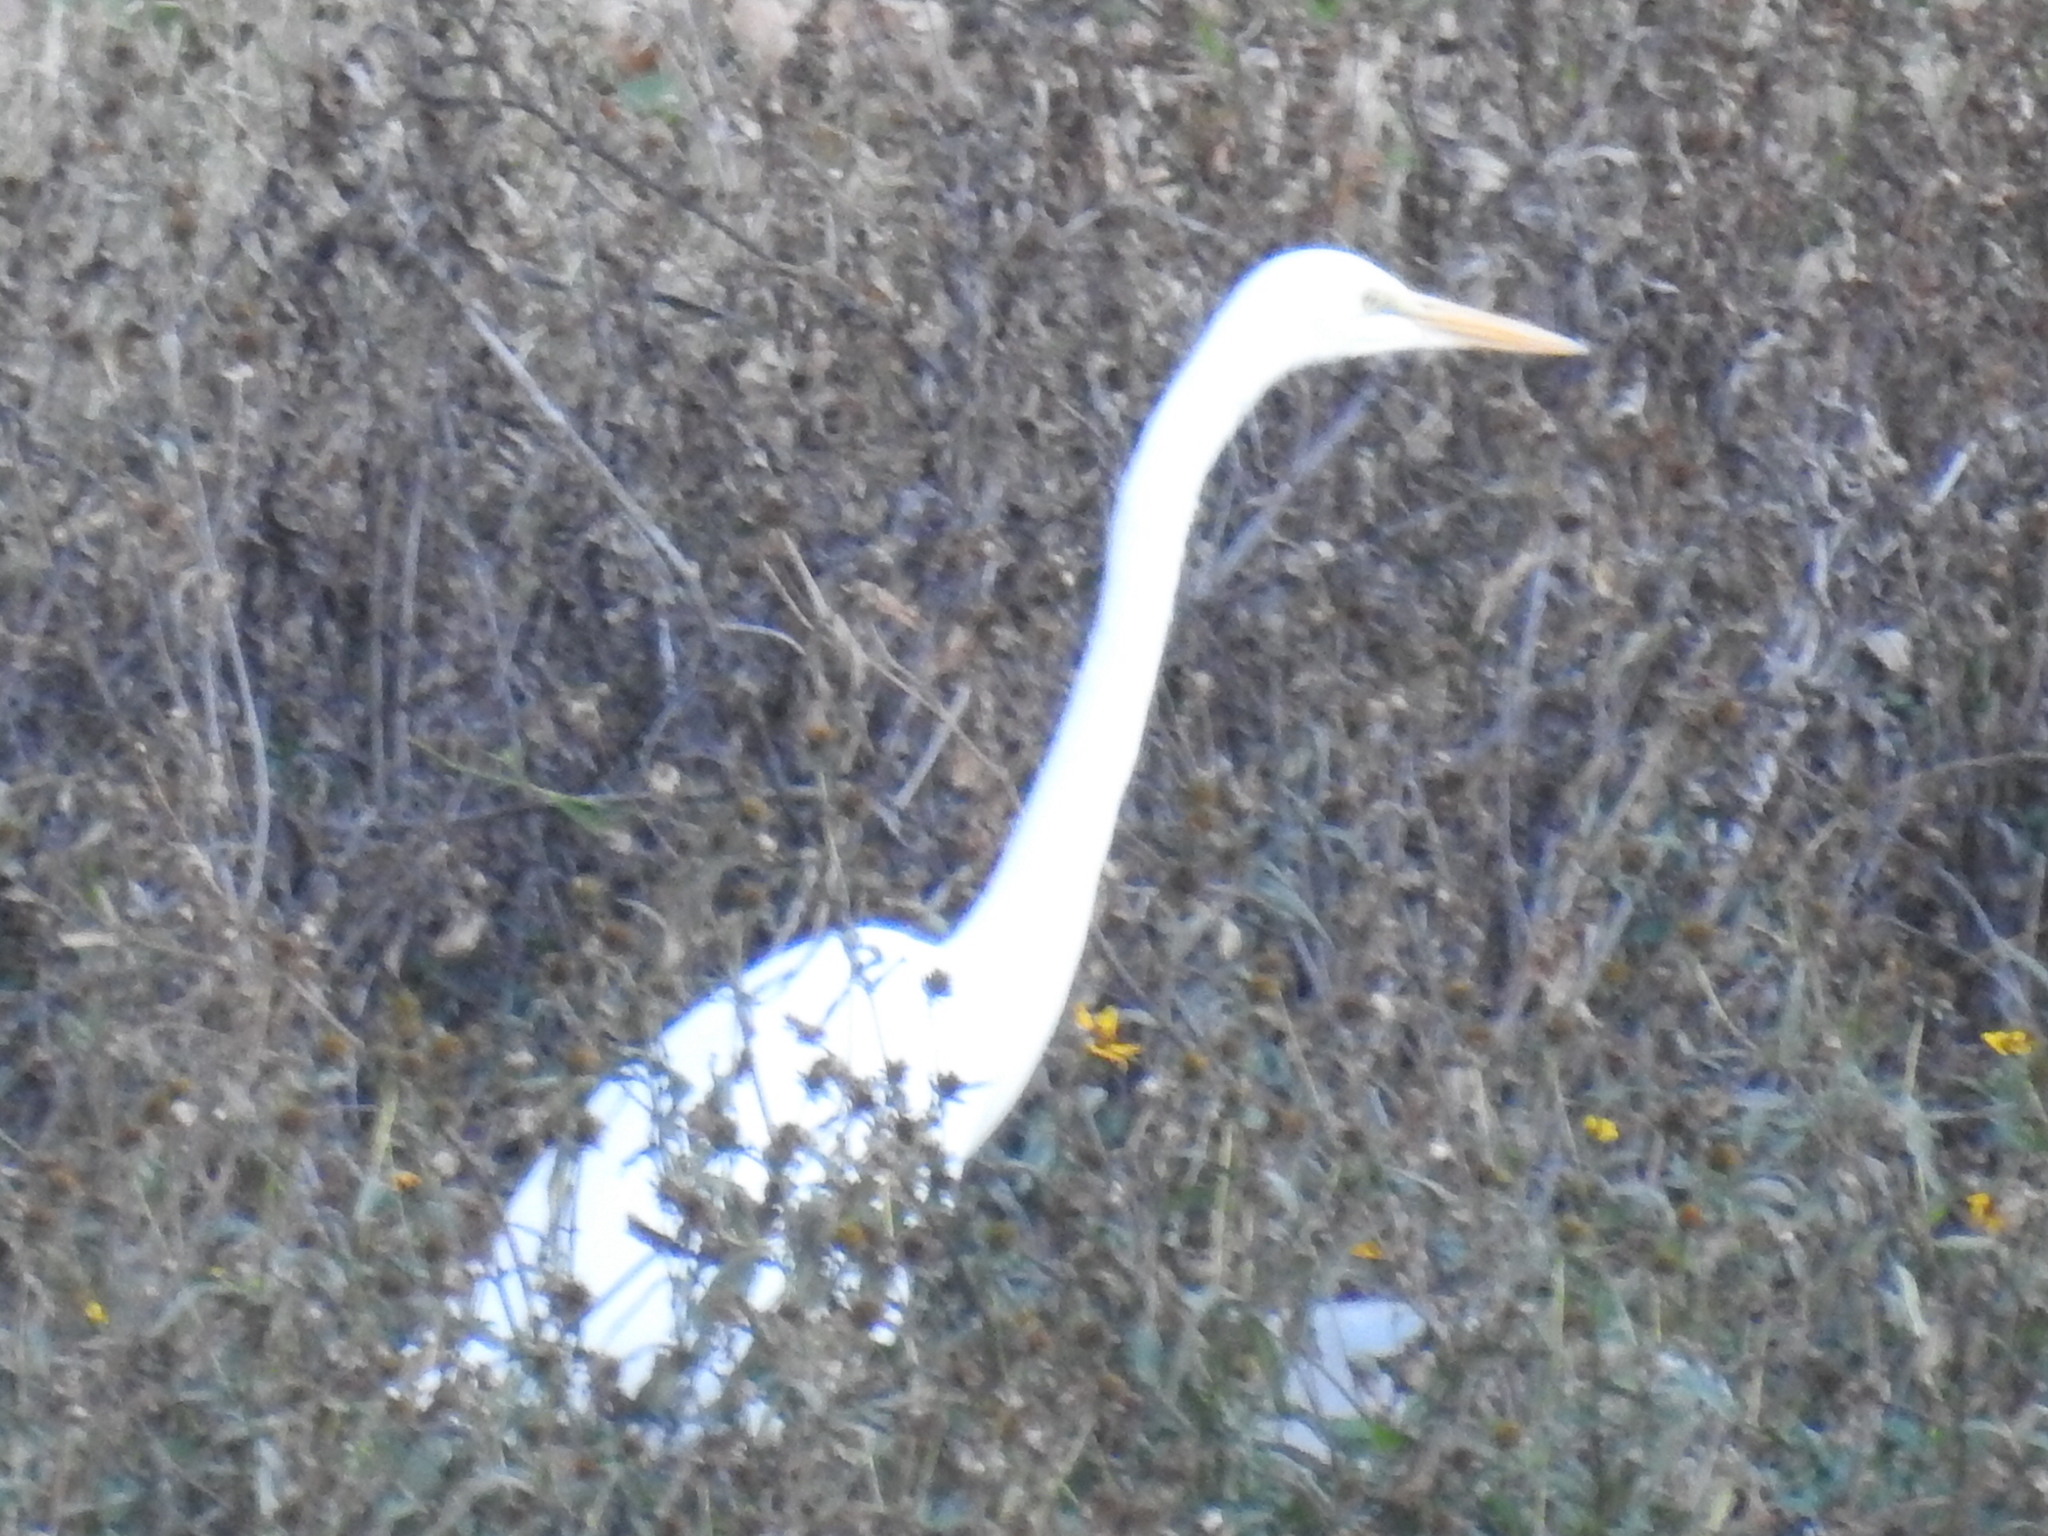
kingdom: Animalia
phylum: Chordata
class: Aves
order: Pelecaniformes
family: Ardeidae
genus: Ardea
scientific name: Ardea alba
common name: Great egret
